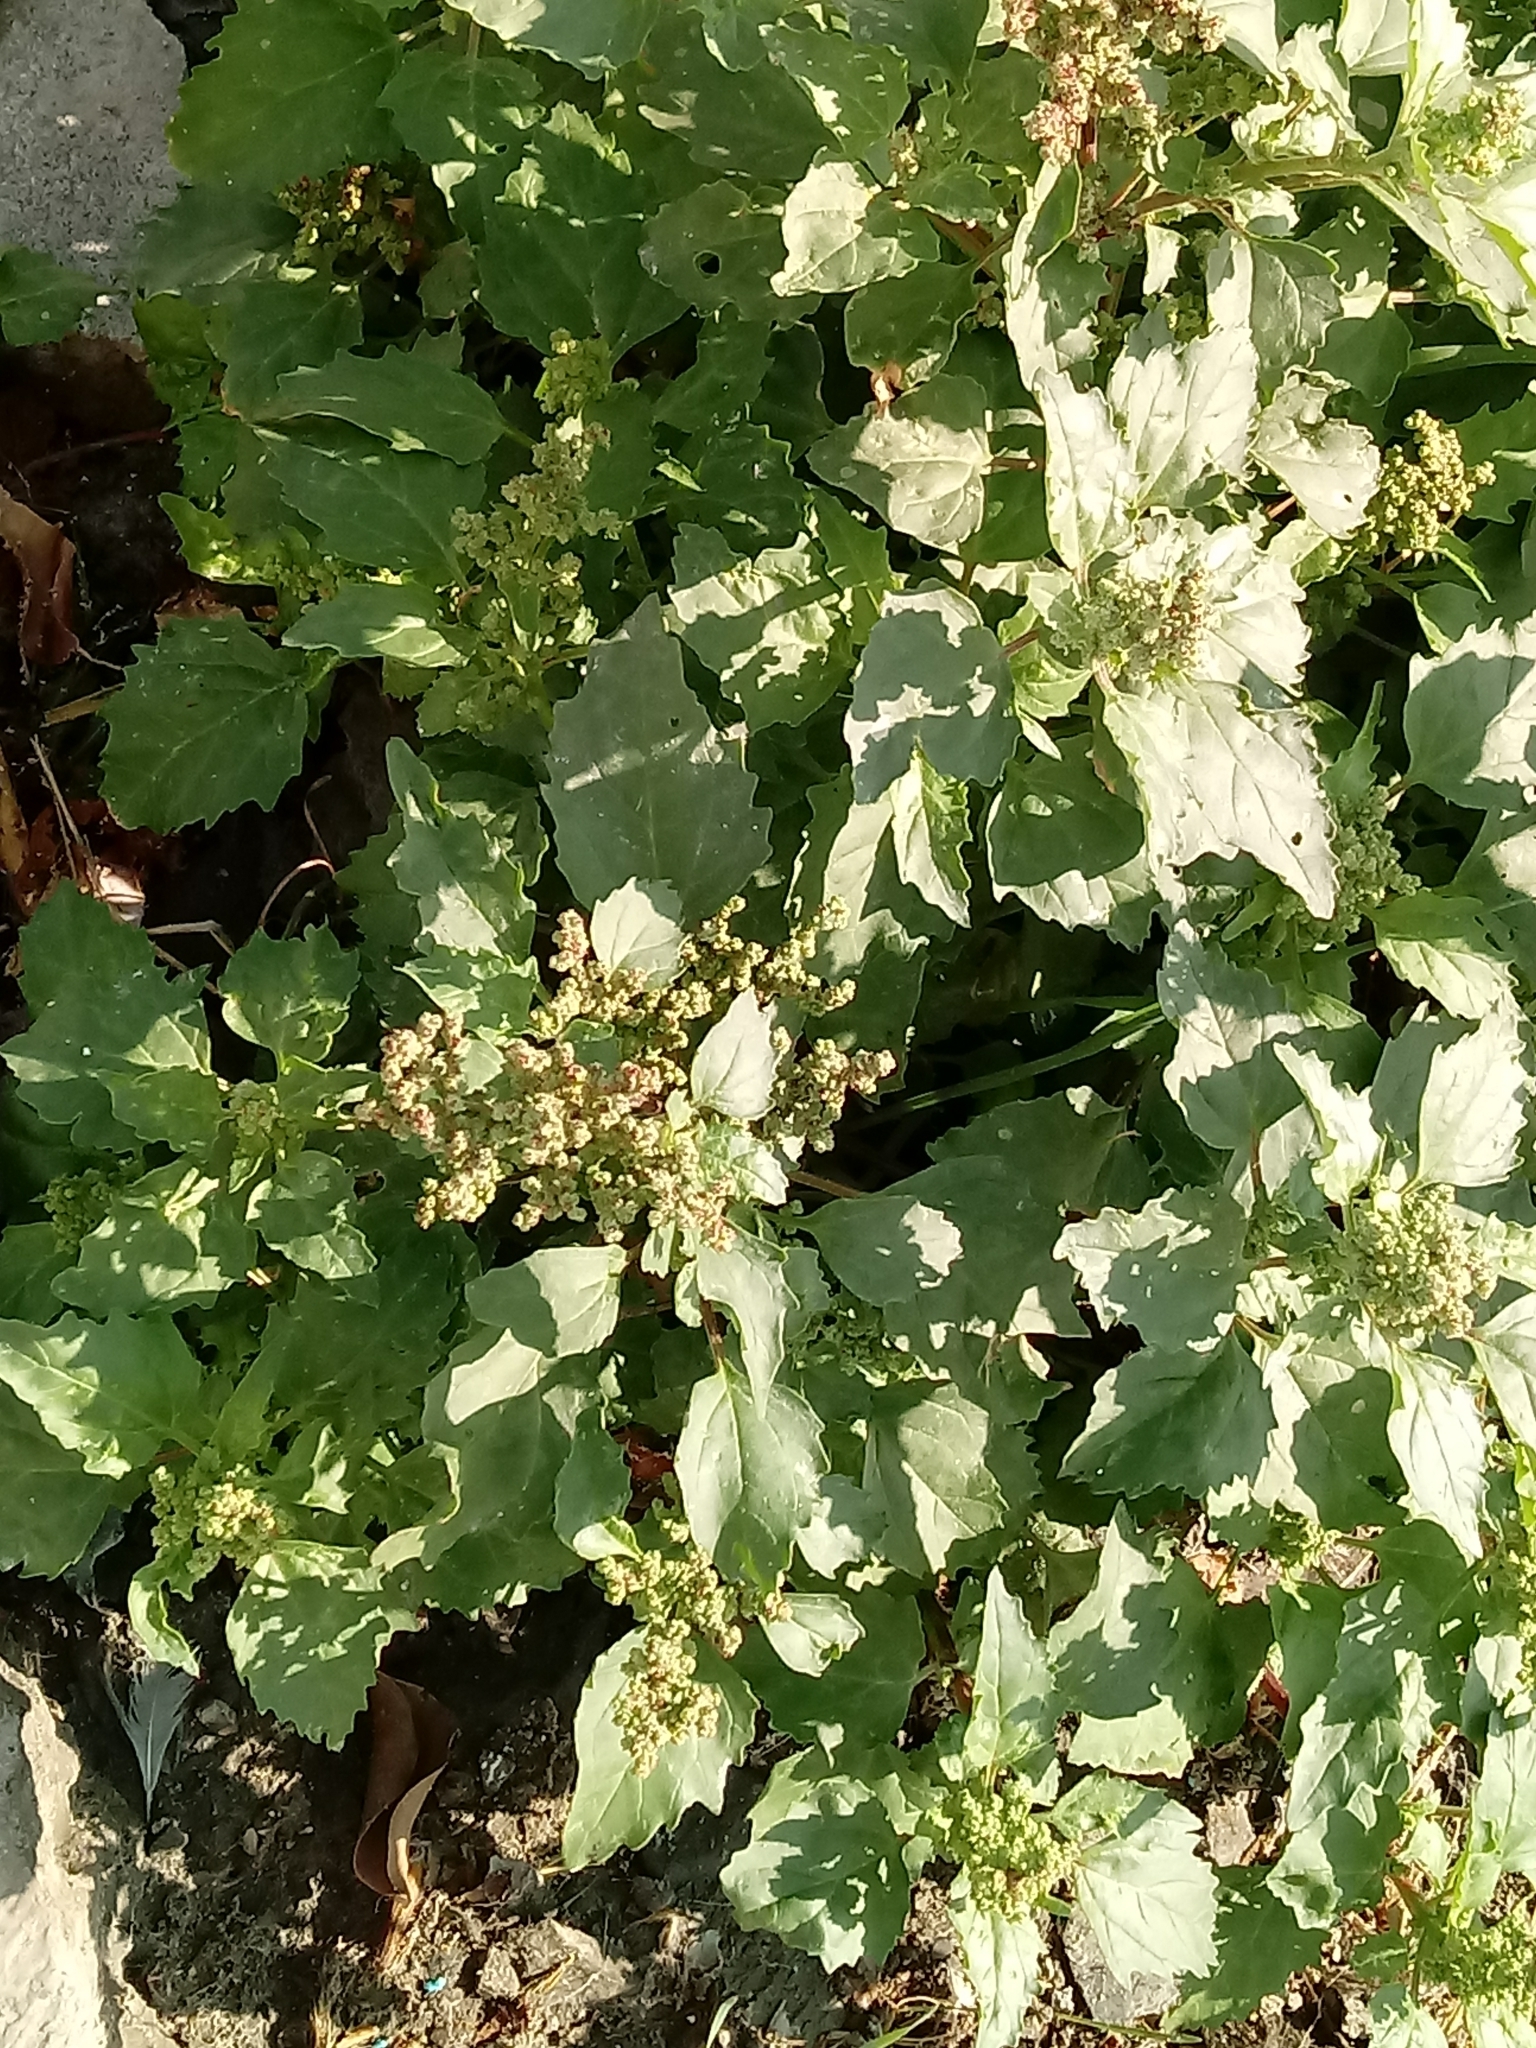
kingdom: Plantae
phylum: Tracheophyta
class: Magnoliopsida
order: Caryophyllales
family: Amaranthaceae
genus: Chenopodiastrum
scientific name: Chenopodiastrum murale
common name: Sowbane
